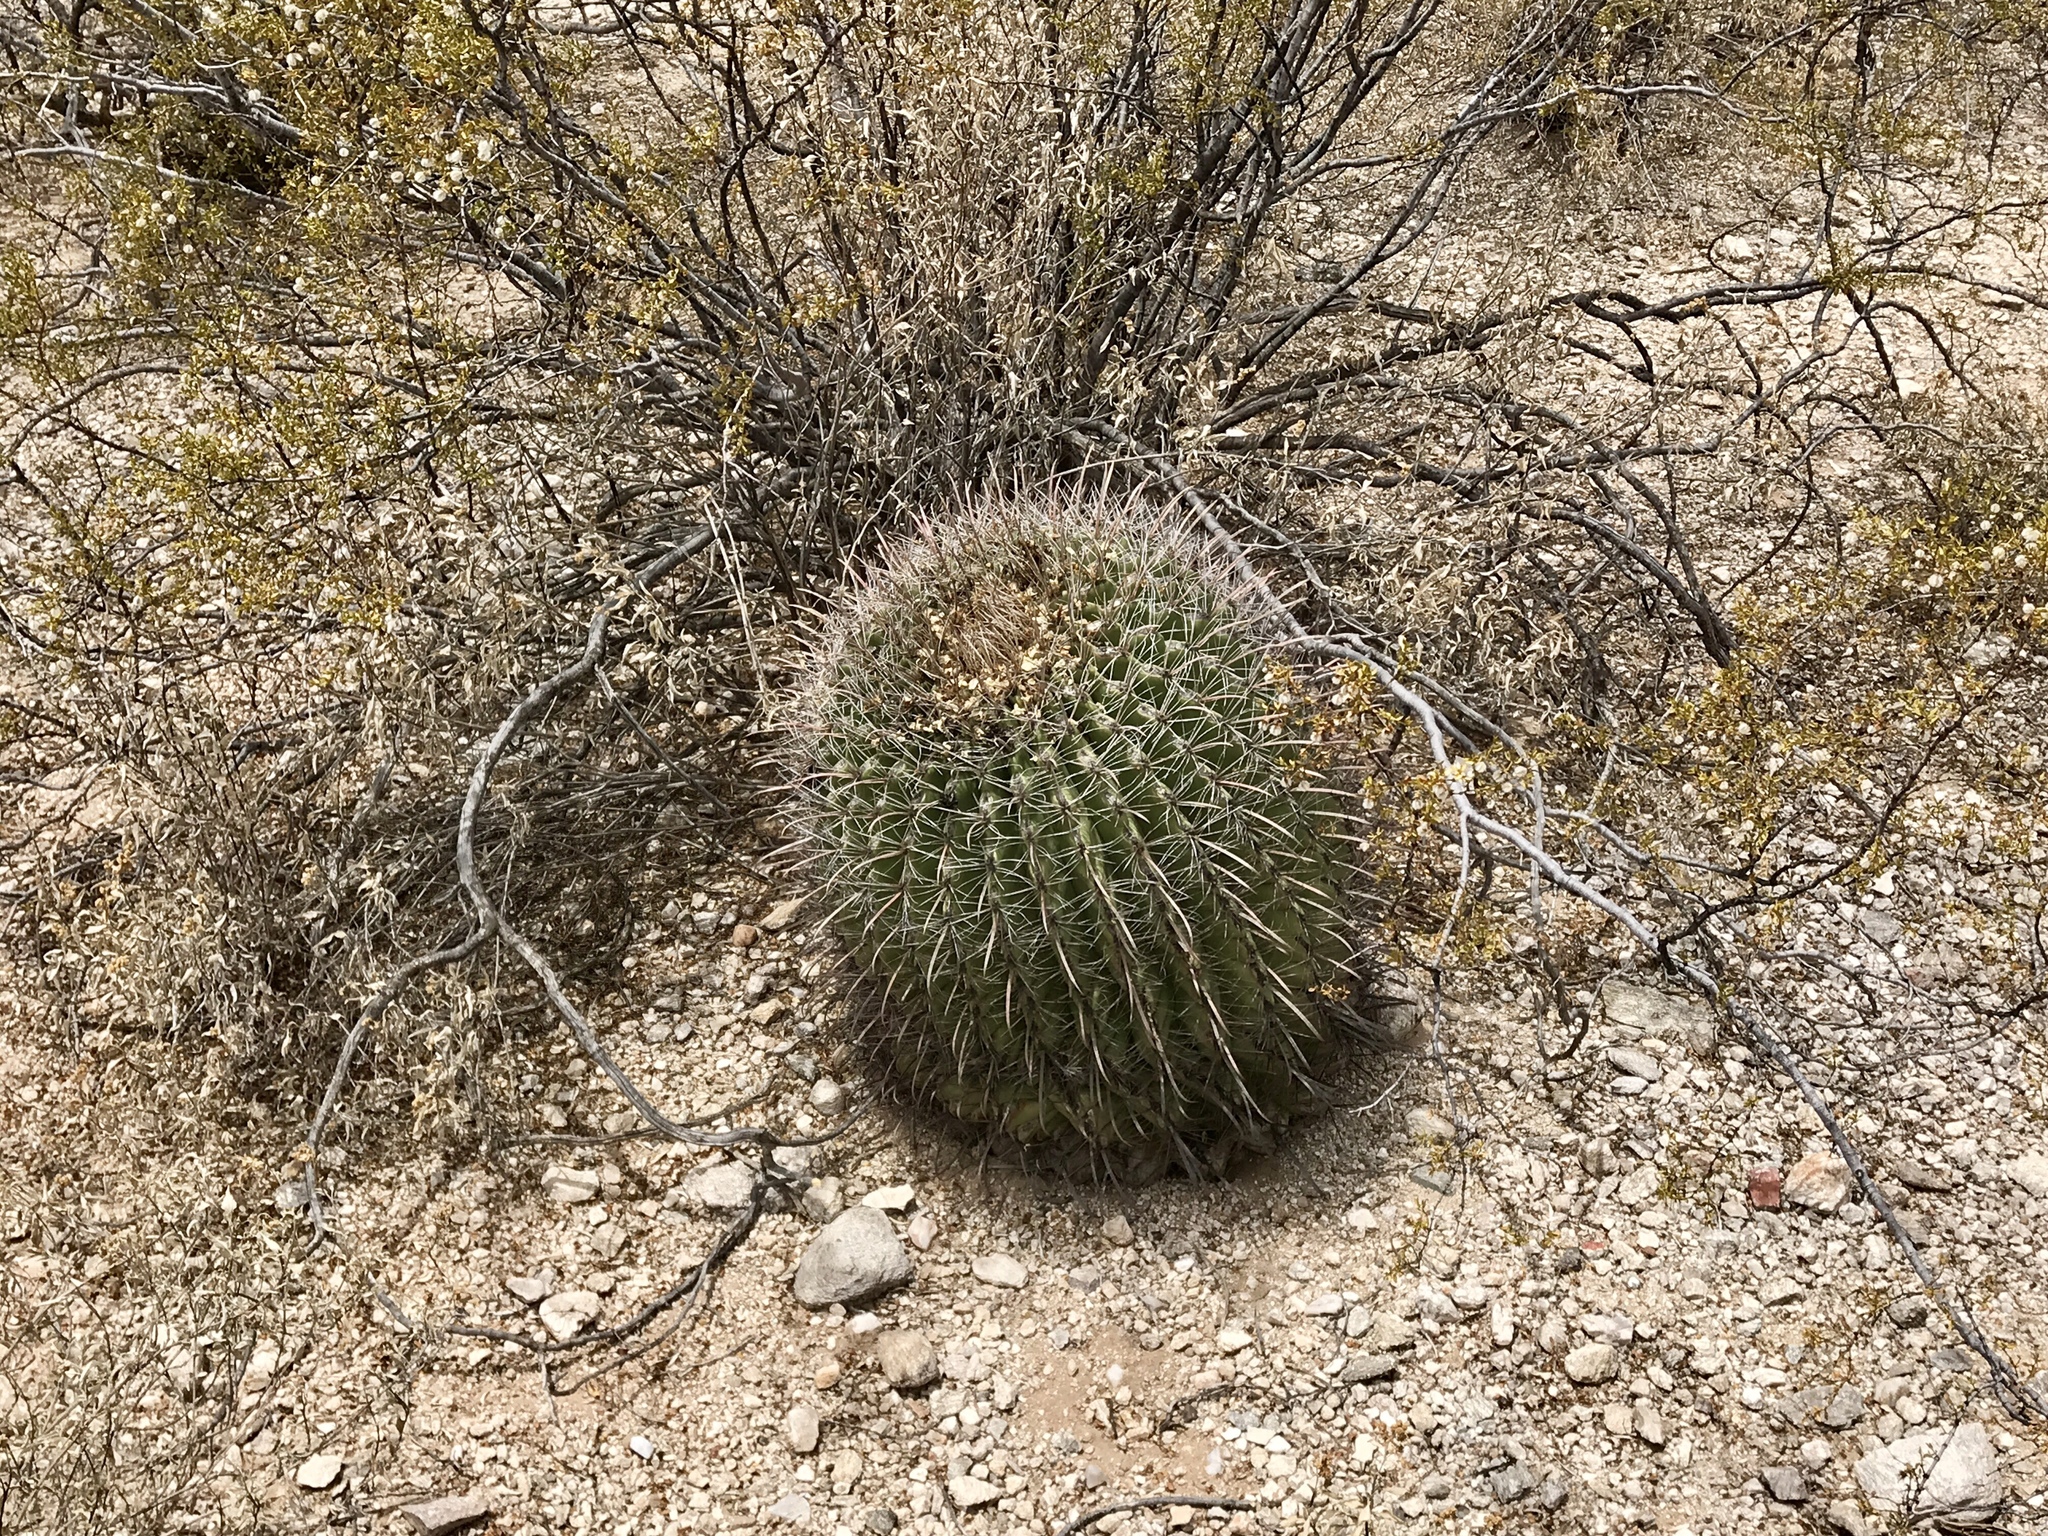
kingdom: Plantae
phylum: Tracheophyta
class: Magnoliopsida
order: Caryophyllales
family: Cactaceae
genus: Ferocactus
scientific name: Ferocactus wislizeni
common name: Candy barrel cactus
